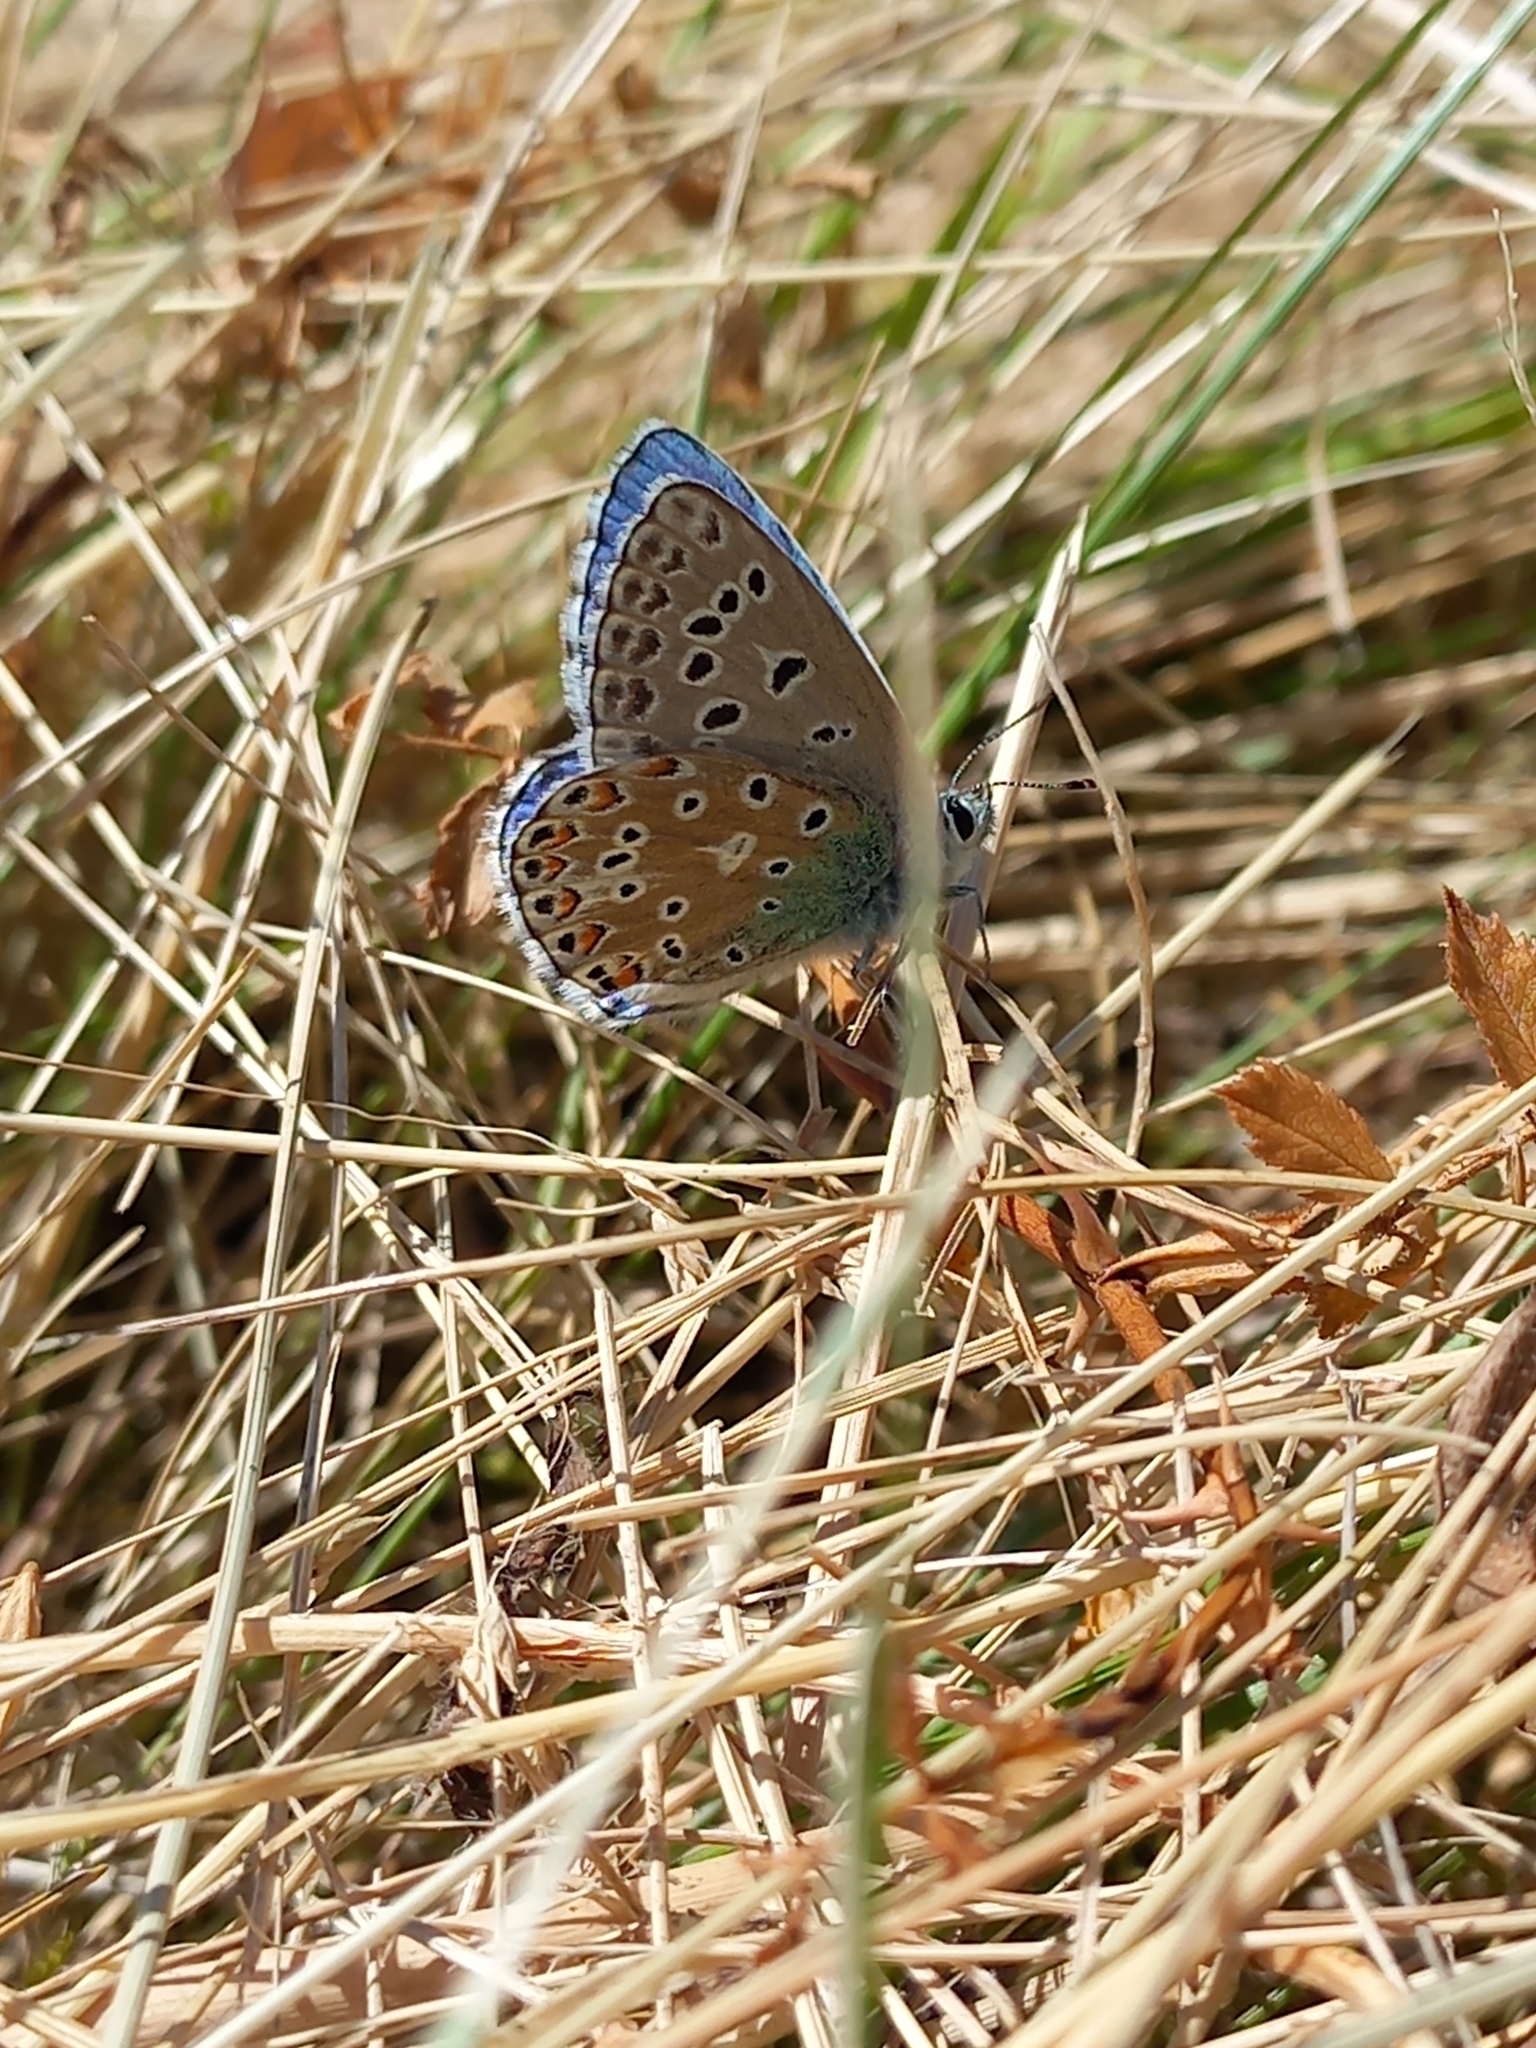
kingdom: Animalia
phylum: Arthropoda
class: Insecta
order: Lepidoptera
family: Lycaenidae
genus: Lysandra
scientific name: Lysandra bellargus
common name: Adonis blue
